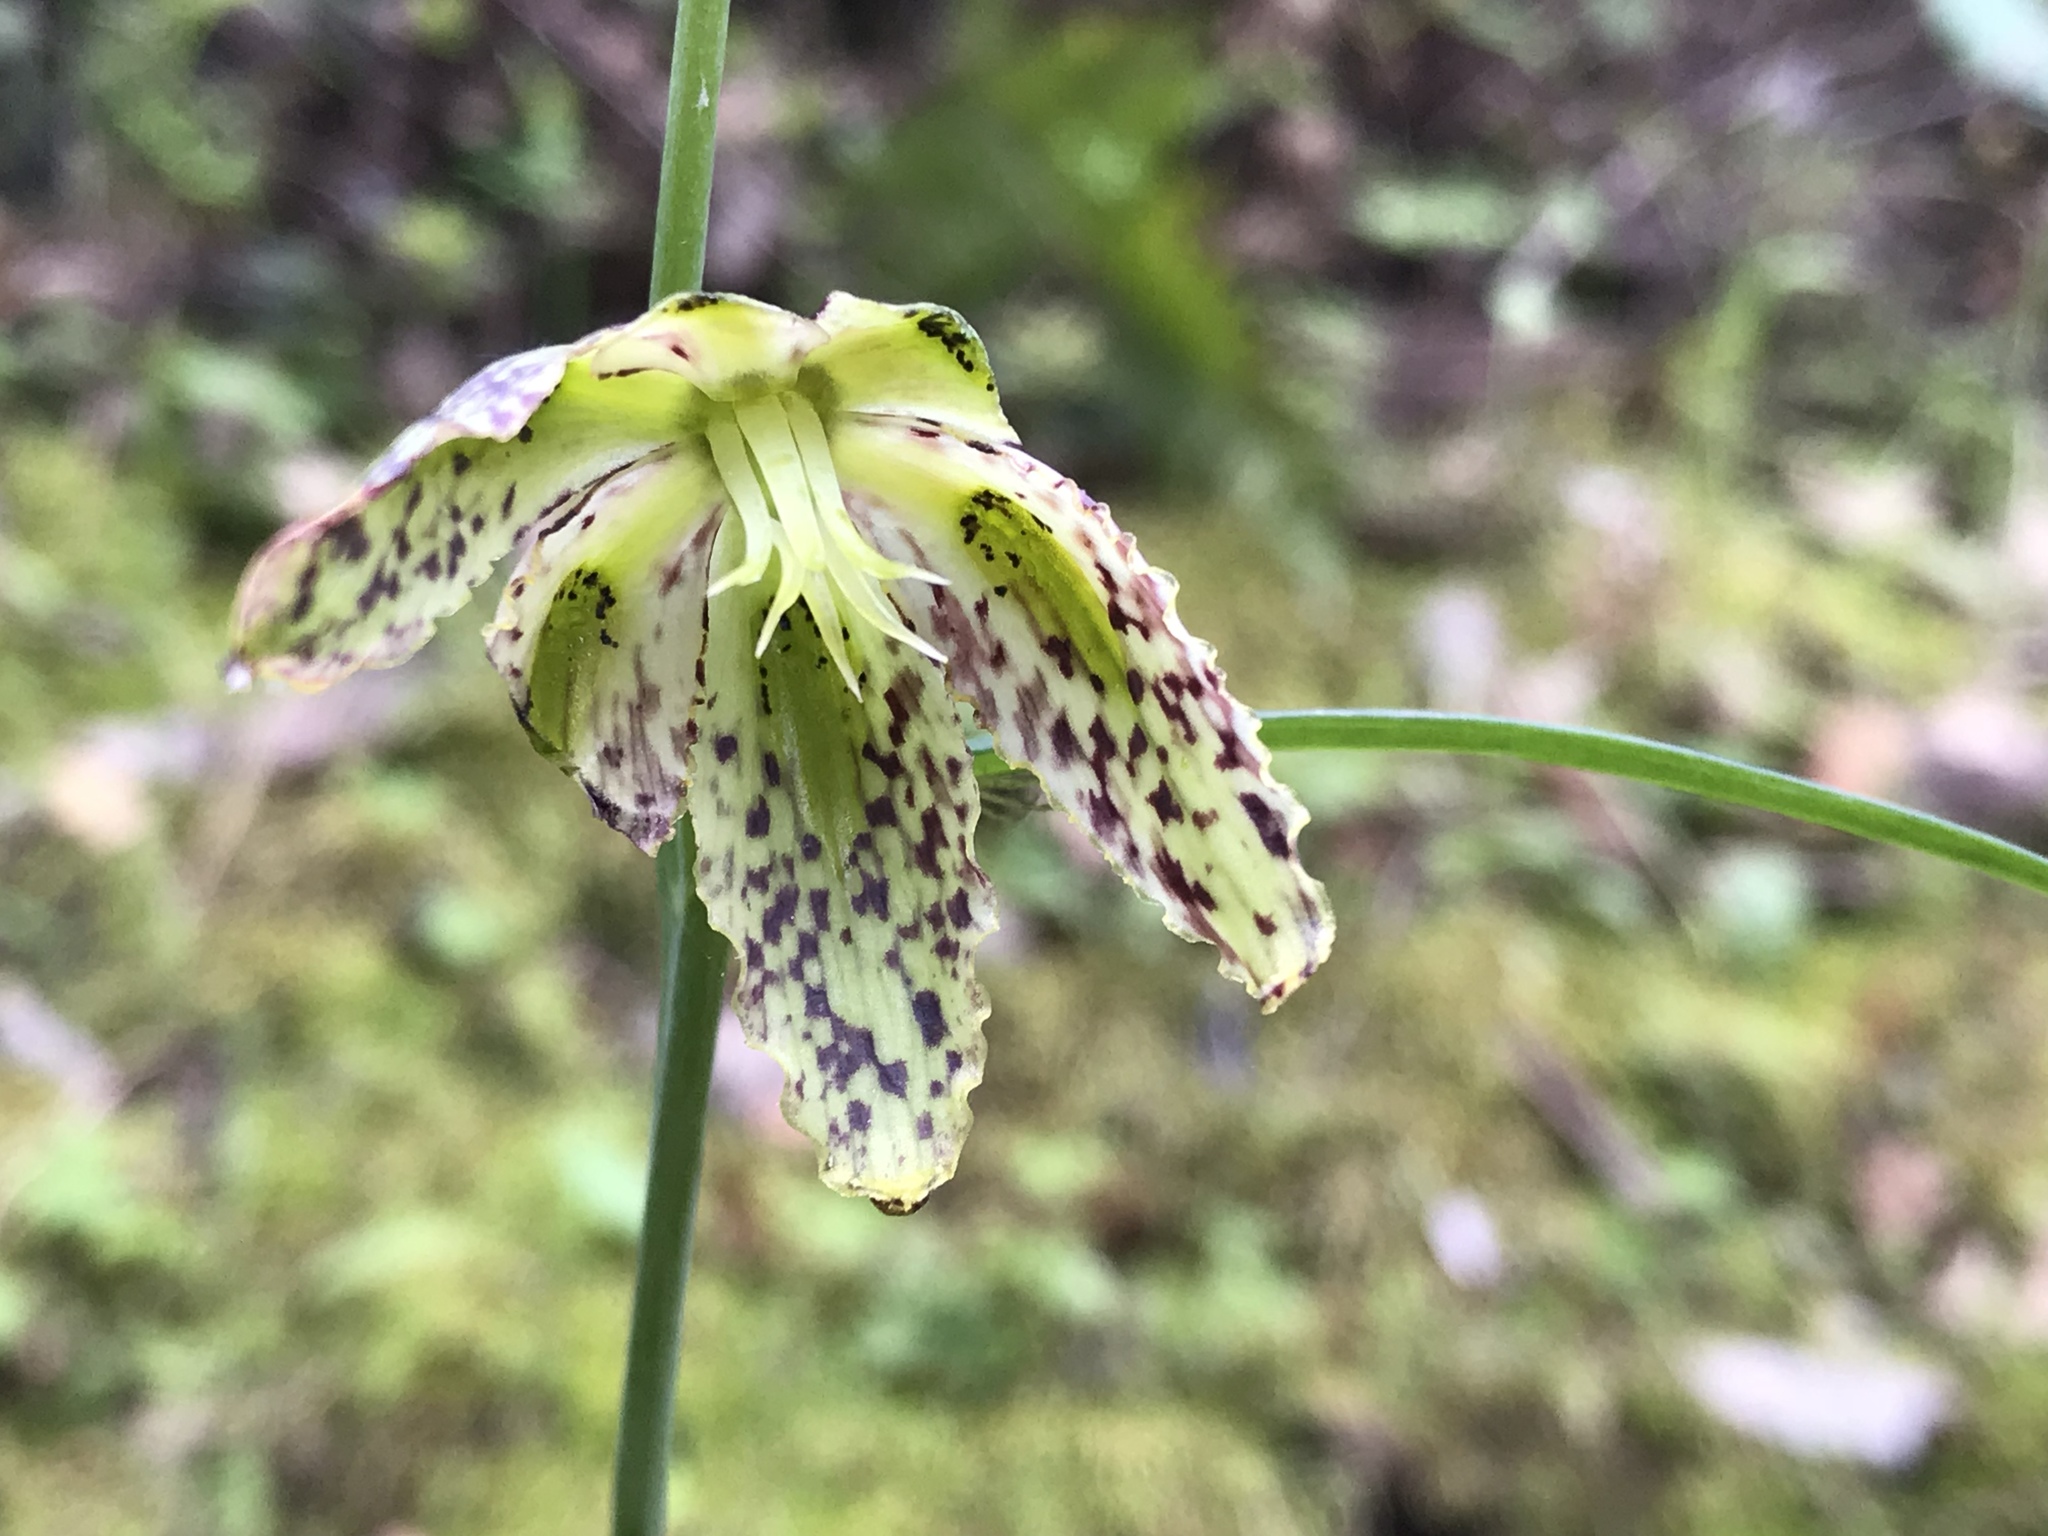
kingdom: Plantae
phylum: Tracheophyta
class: Liliopsida
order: Liliales
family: Liliaceae
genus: Fritillaria
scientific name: Fritillaria affinis
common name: Ojai fritillary
